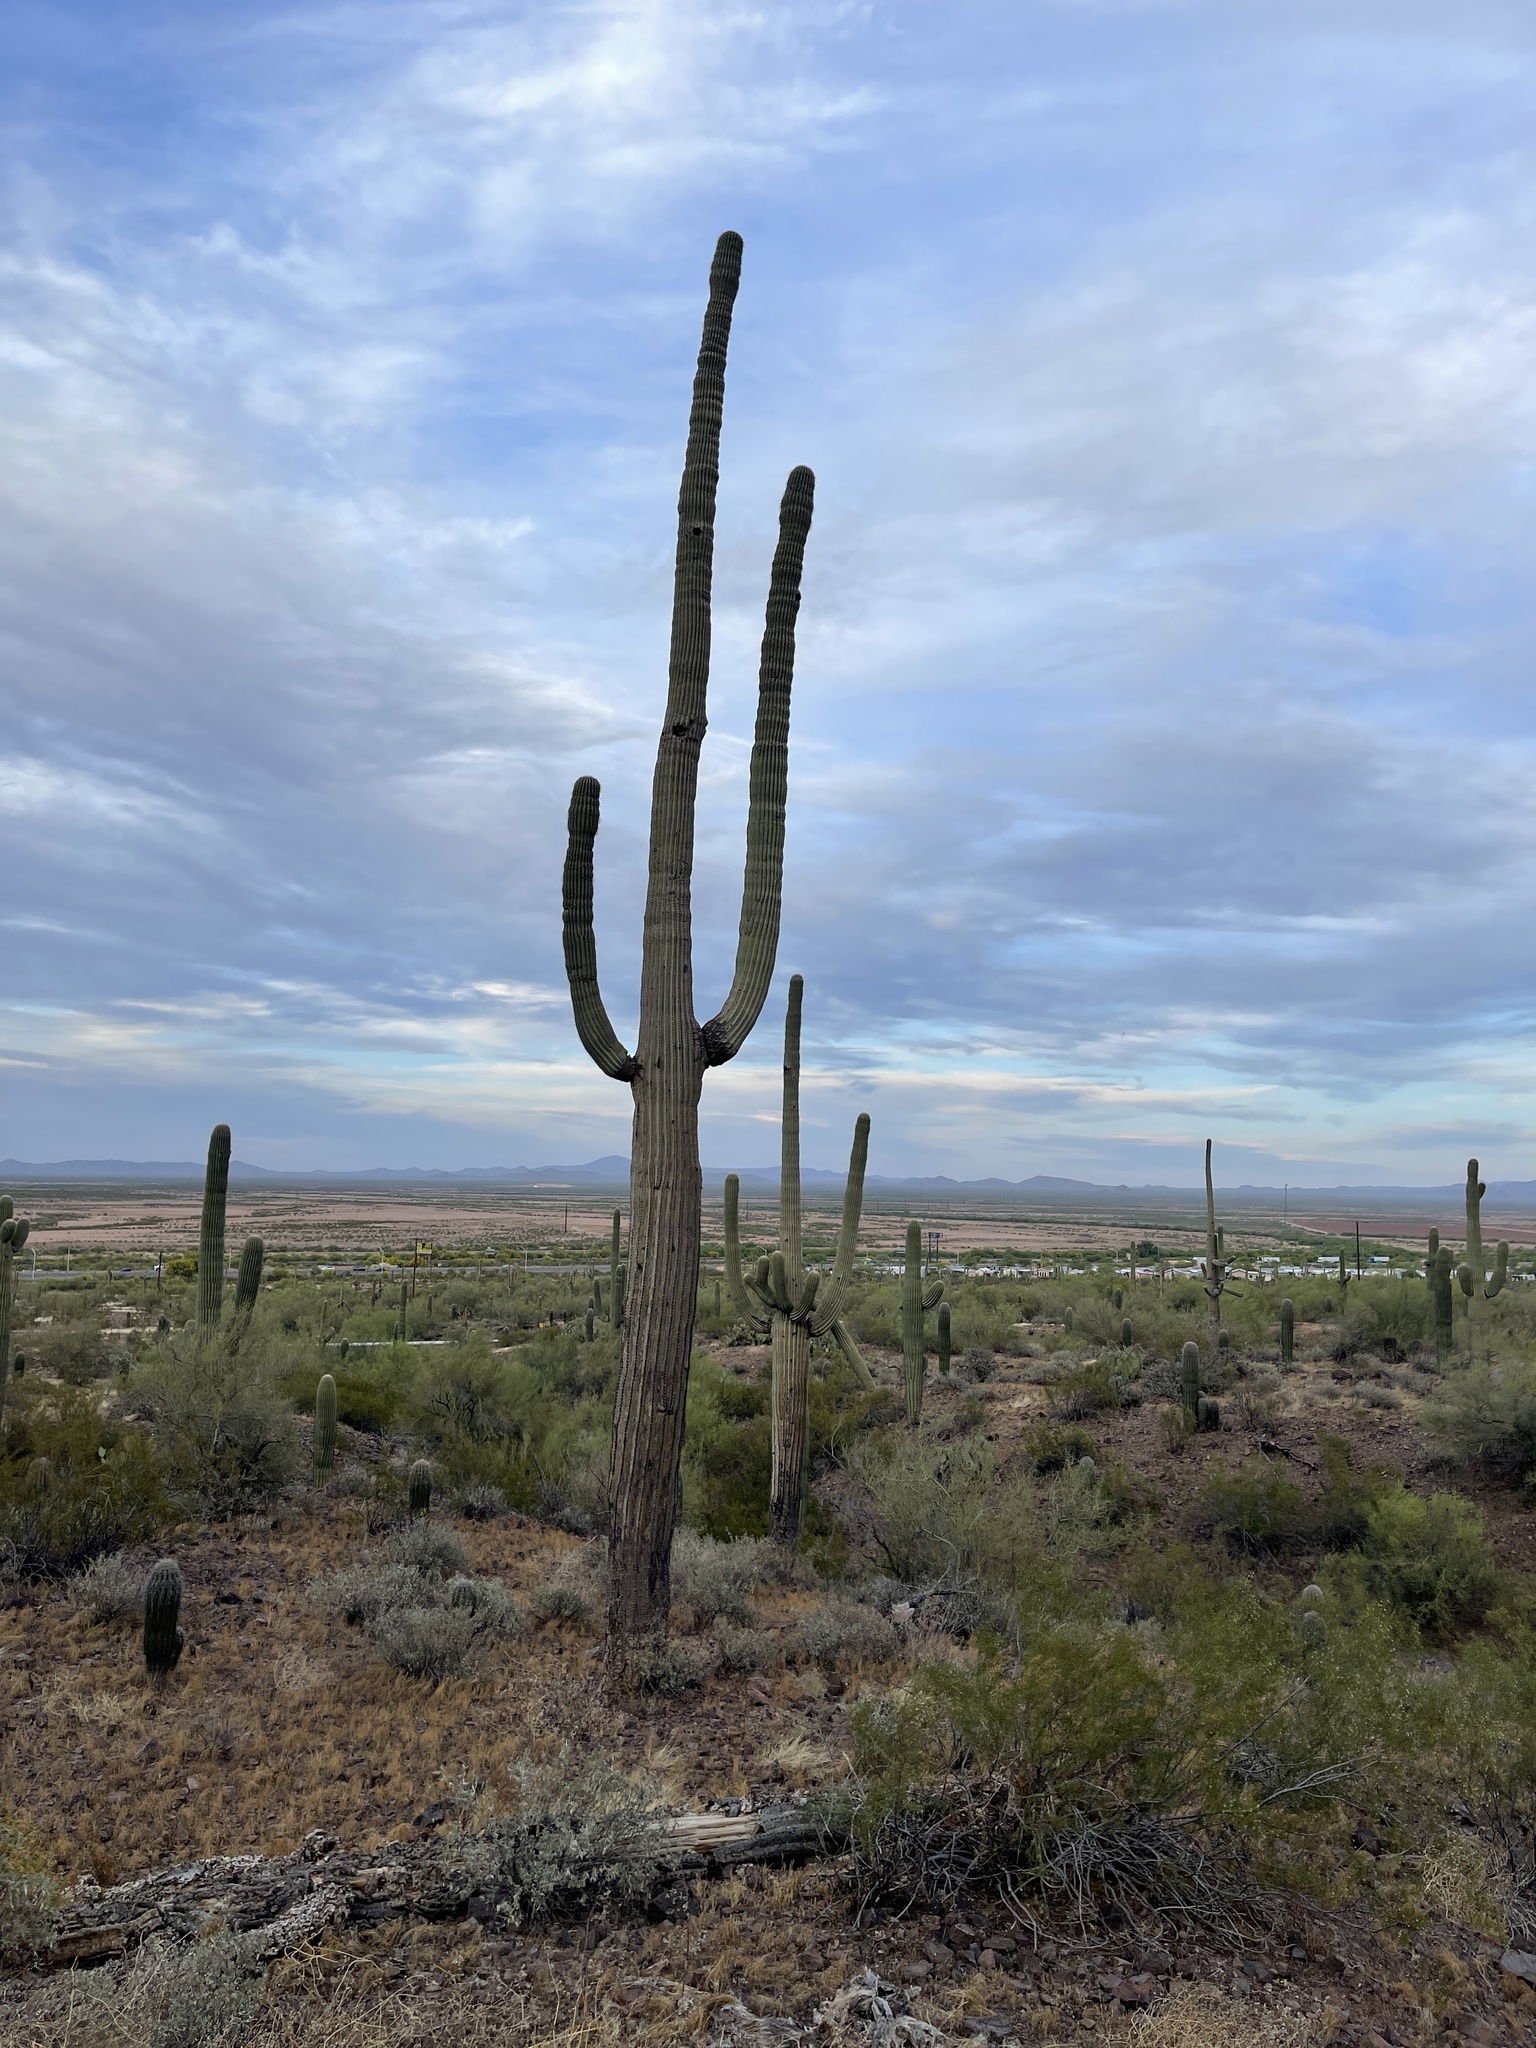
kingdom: Plantae
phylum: Tracheophyta
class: Magnoliopsida
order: Caryophyllales
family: Cactaceae
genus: Carnegiea
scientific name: Carnegiea gigantea
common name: Saguaro
